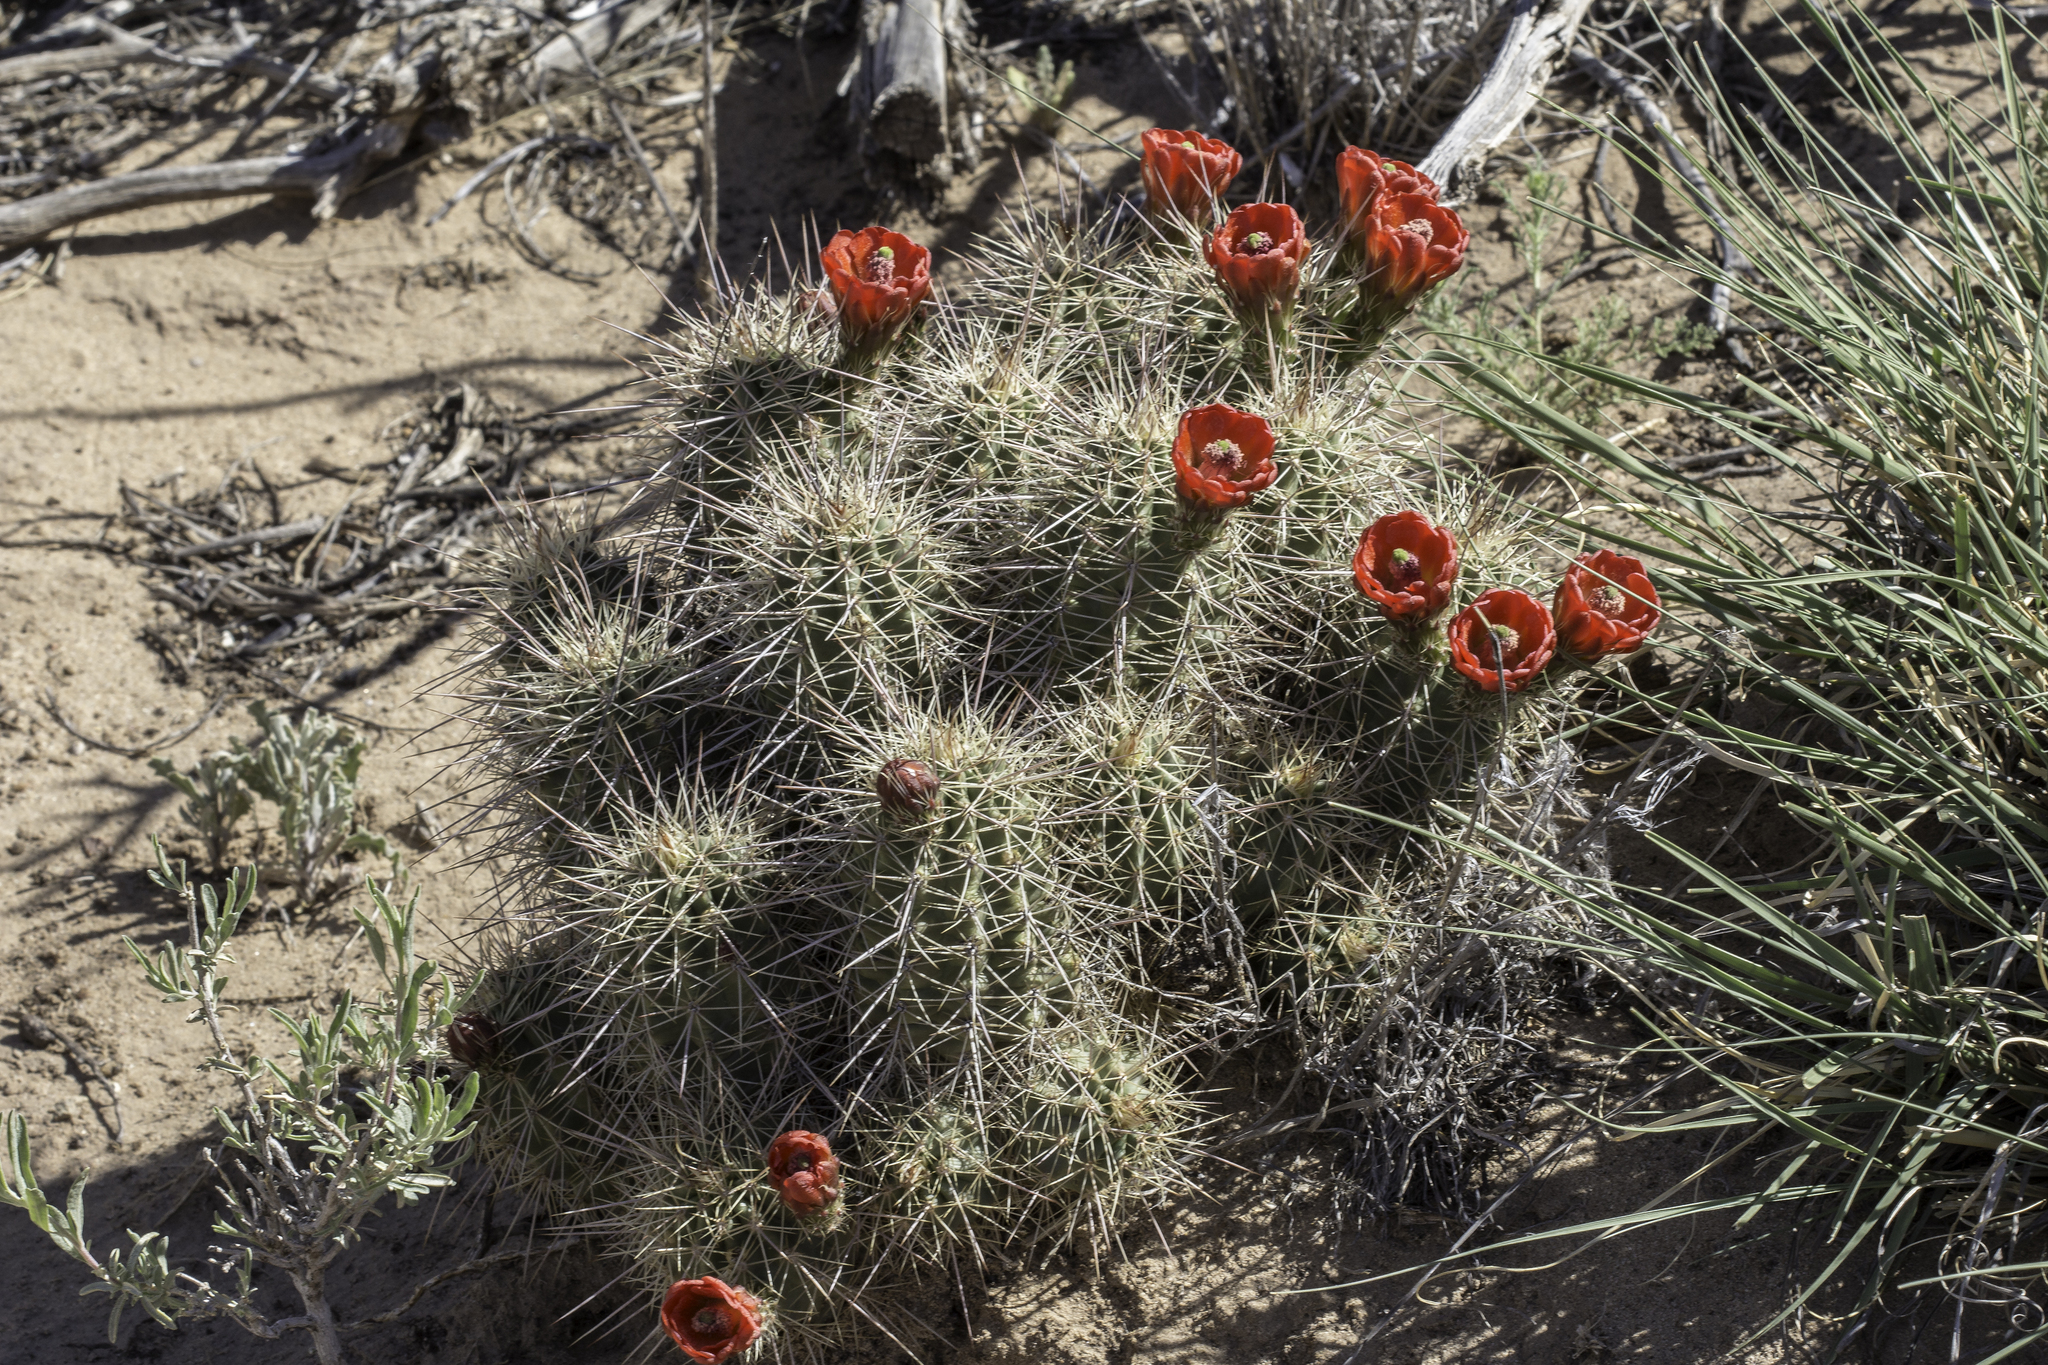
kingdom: Plantae
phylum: Tracheophyta
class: Magnoliopsida
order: Caryophyllales
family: Cactaceae
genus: Echinocereus
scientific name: Echinocereus coccineus
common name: Scarlet hedgehog cactus
